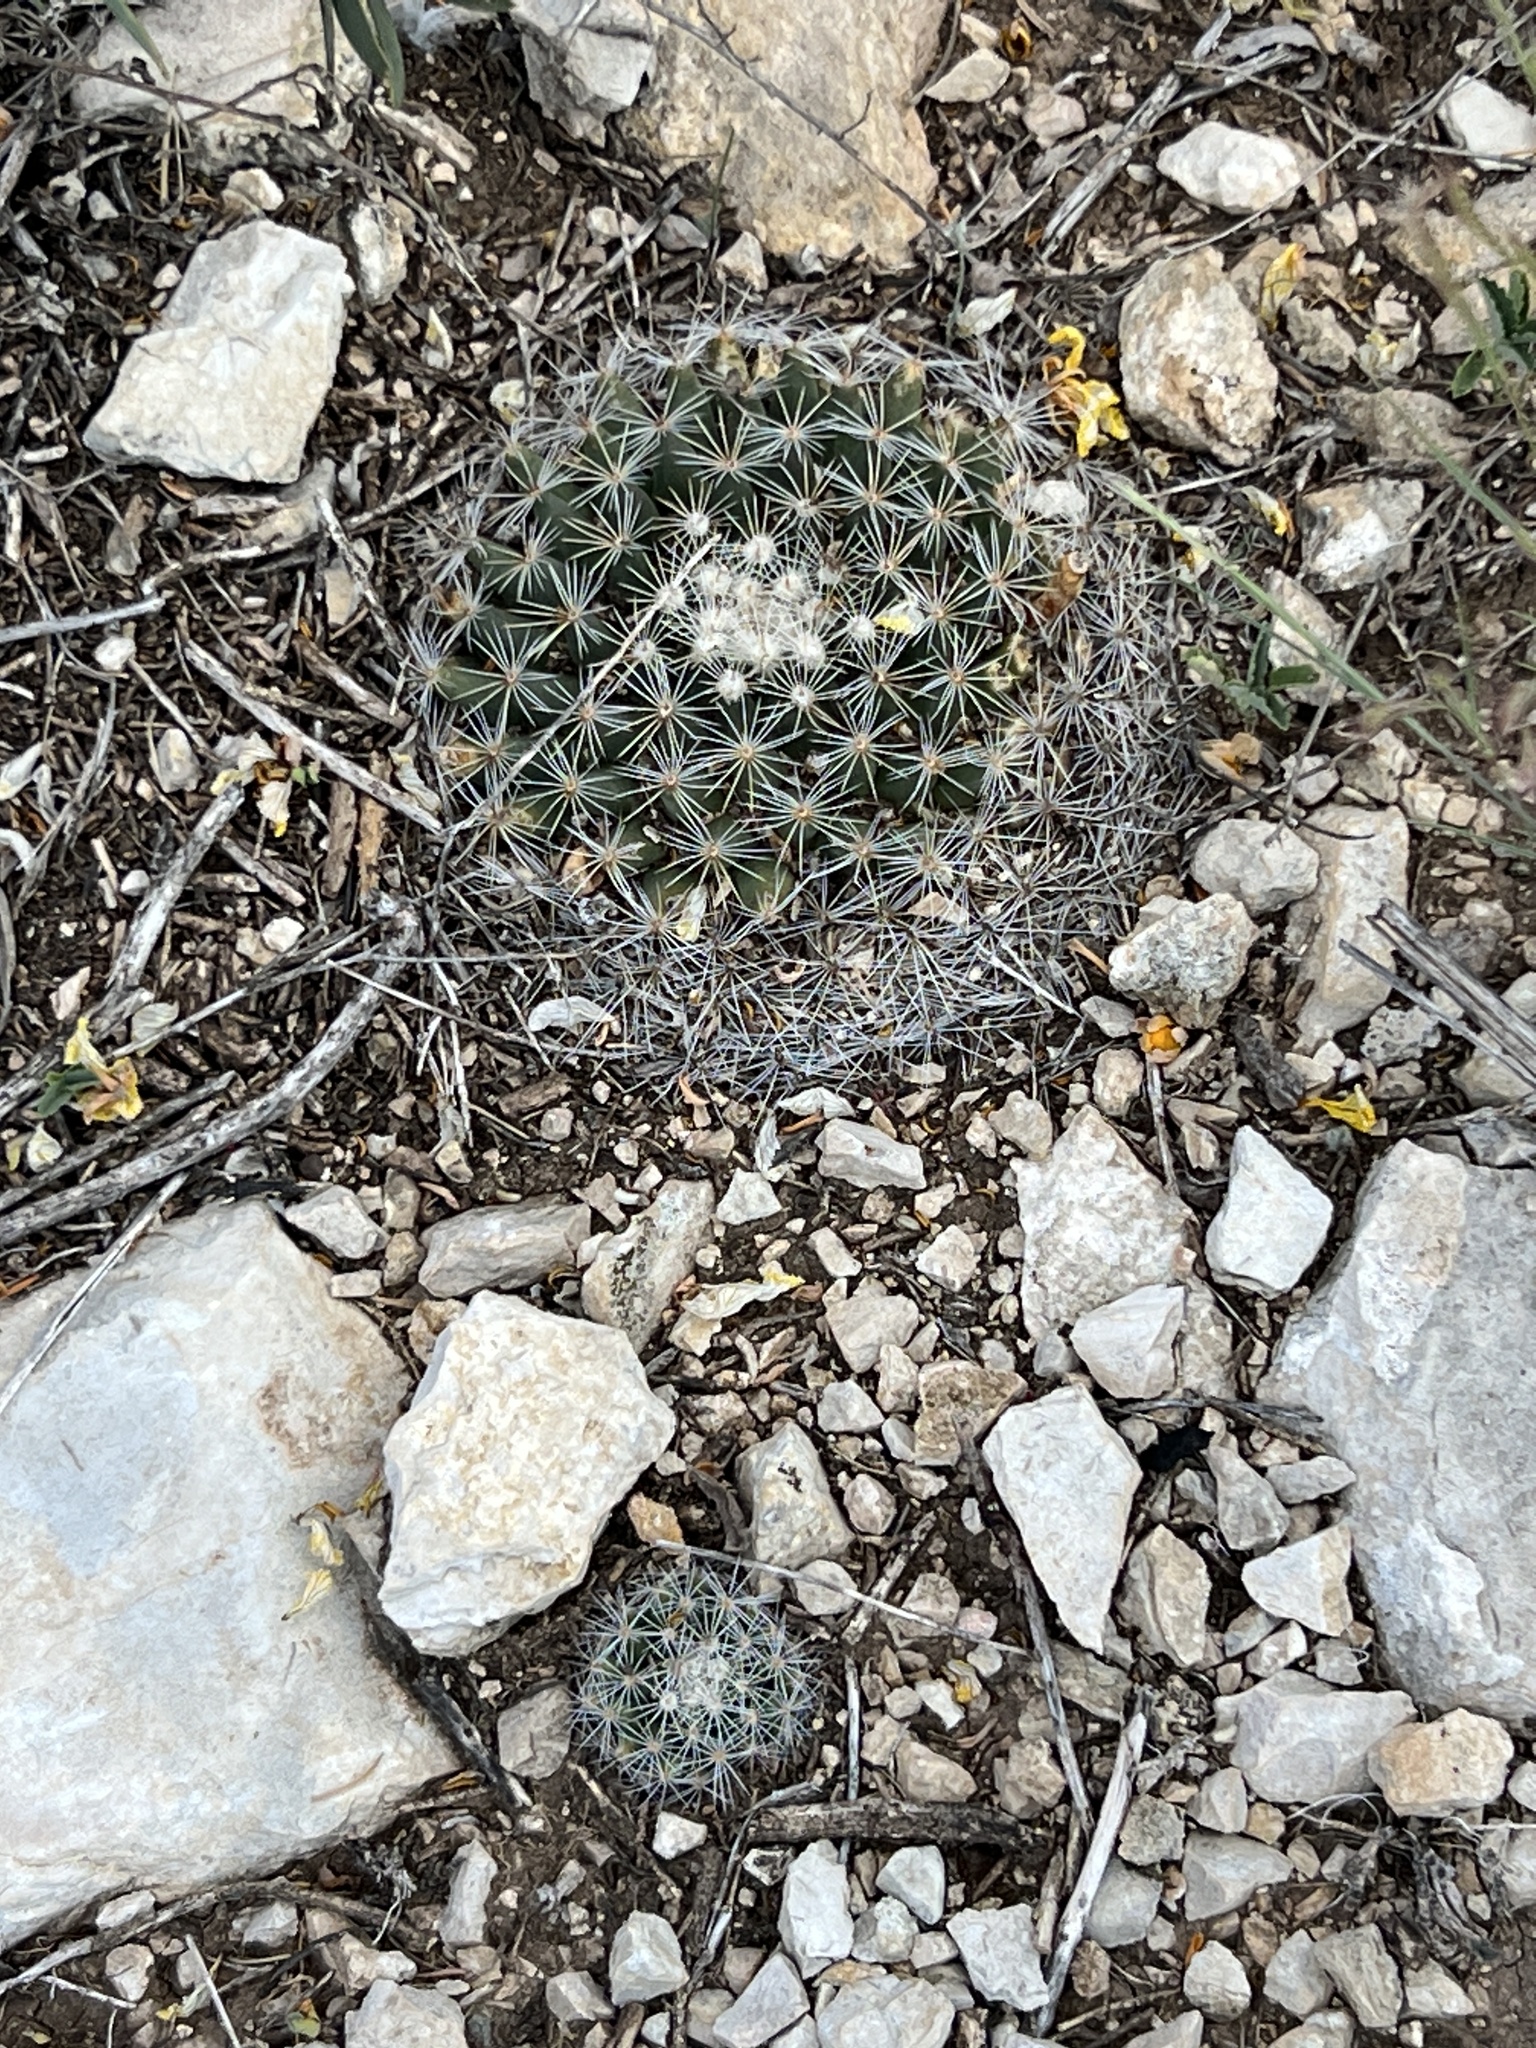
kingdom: Plantae
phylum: Tracheophyta
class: Magnoliopsida
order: Caryophyllales
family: Cactaceae
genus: Mammillaria
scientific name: Mammillaria heyderi
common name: Little nipple cactus
